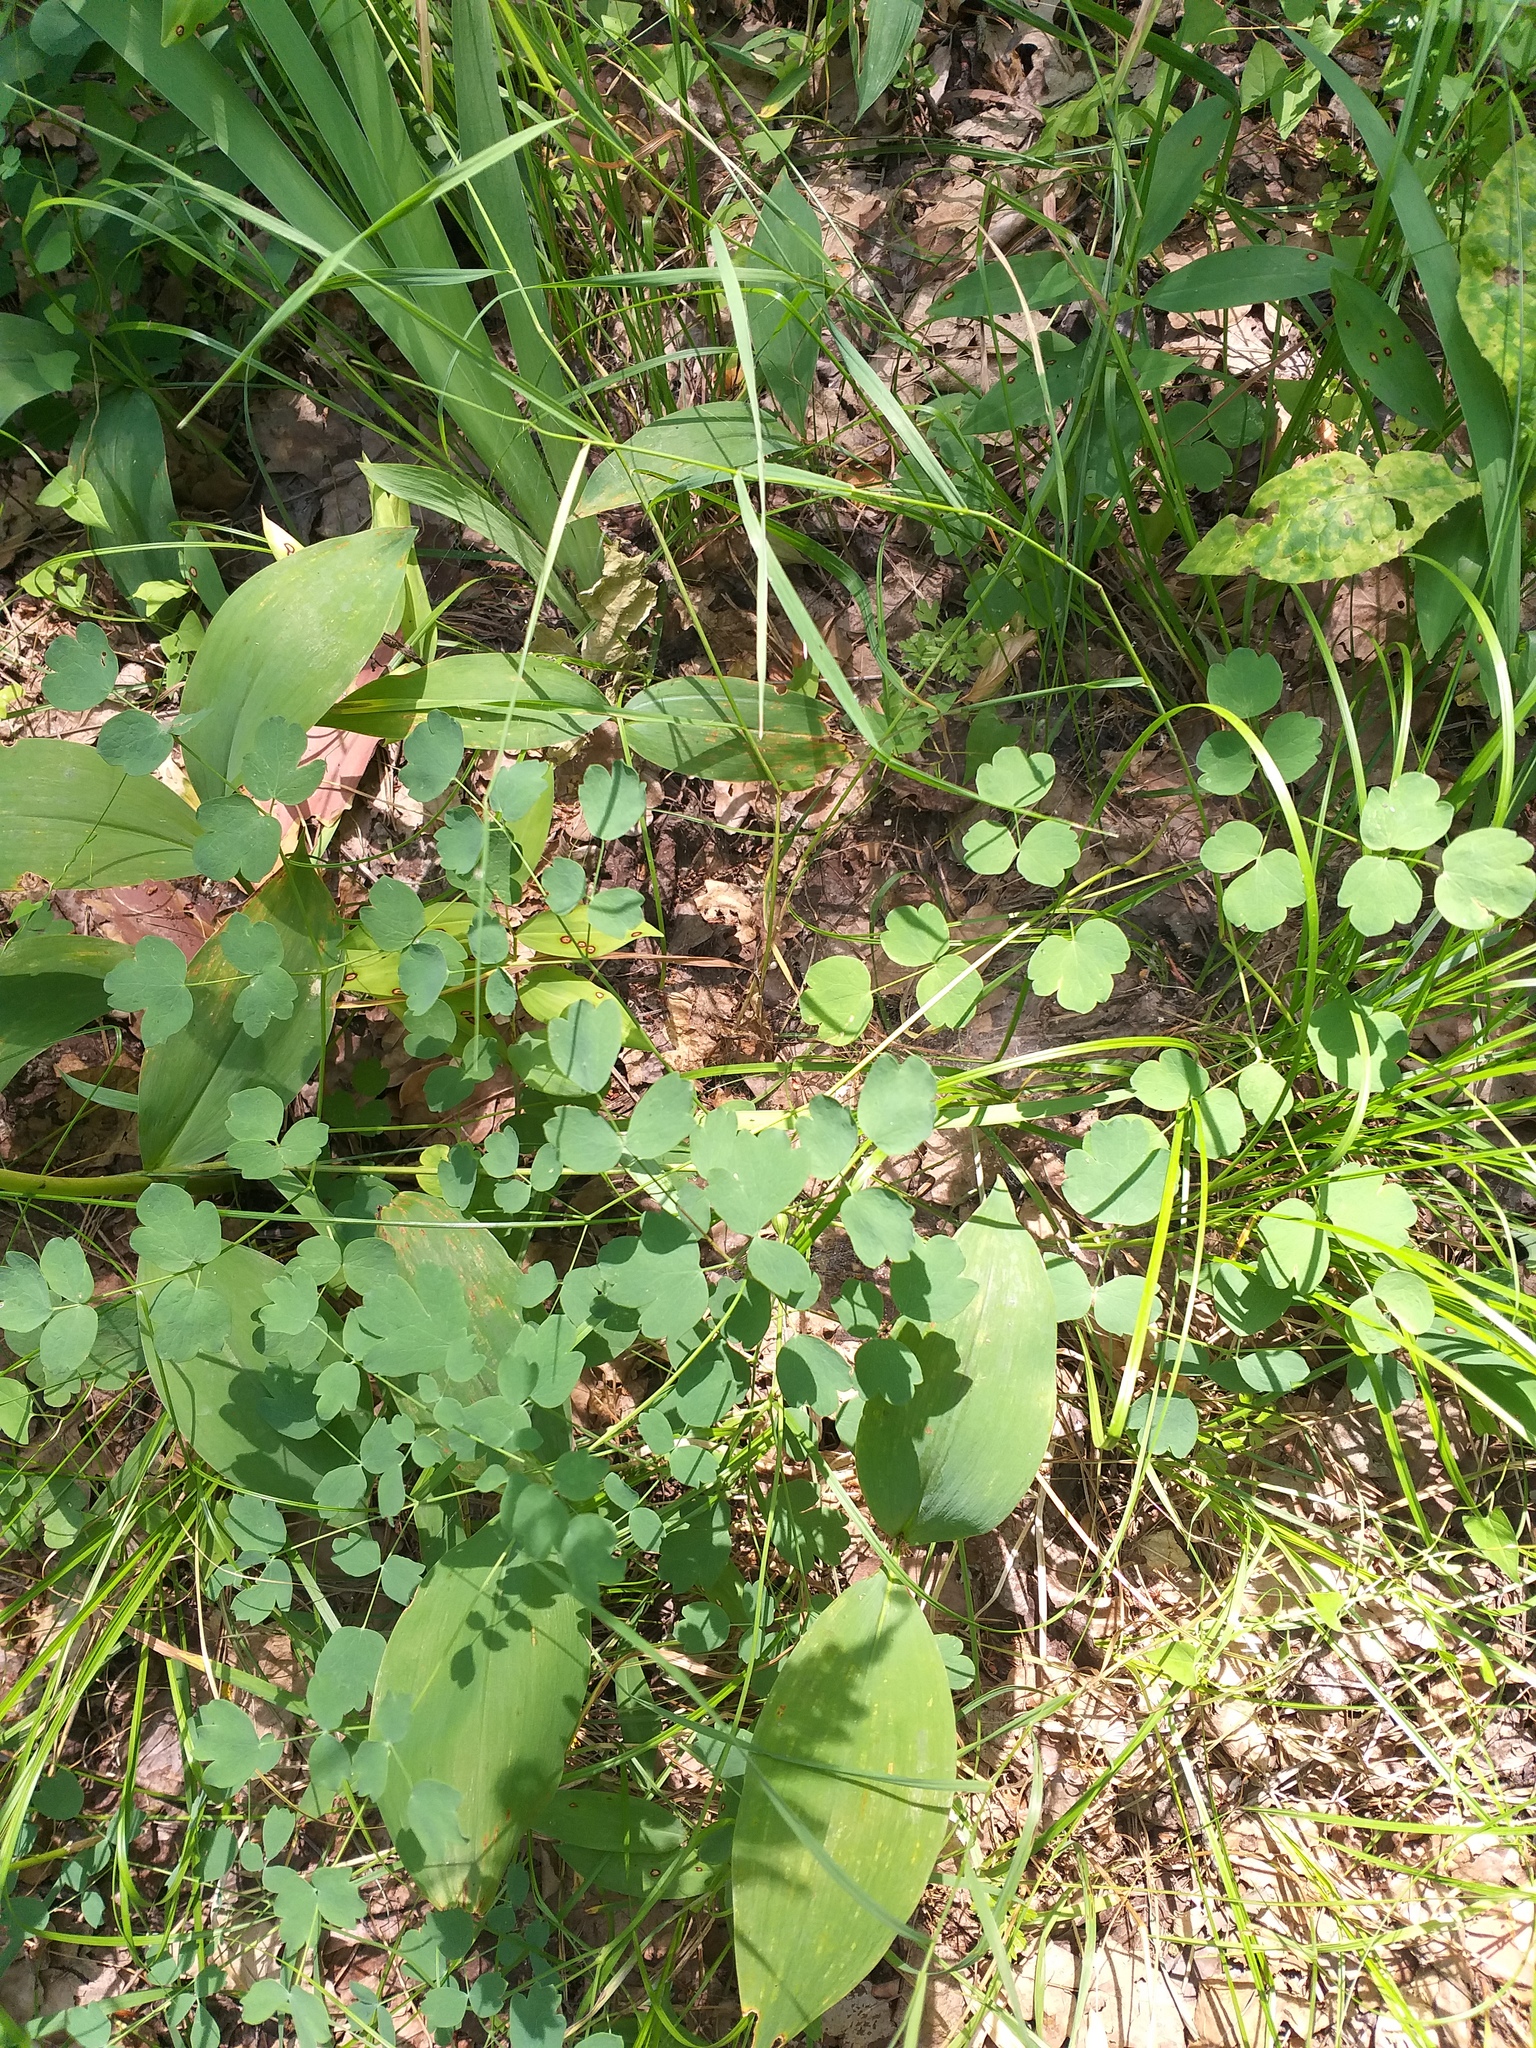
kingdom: Plantae
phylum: Tracheophyta
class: Magnoliopsida
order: Ranunculales
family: Ranunculaceae
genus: Thalictrum
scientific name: Thalictrum minus
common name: Lesser meadow-rue
